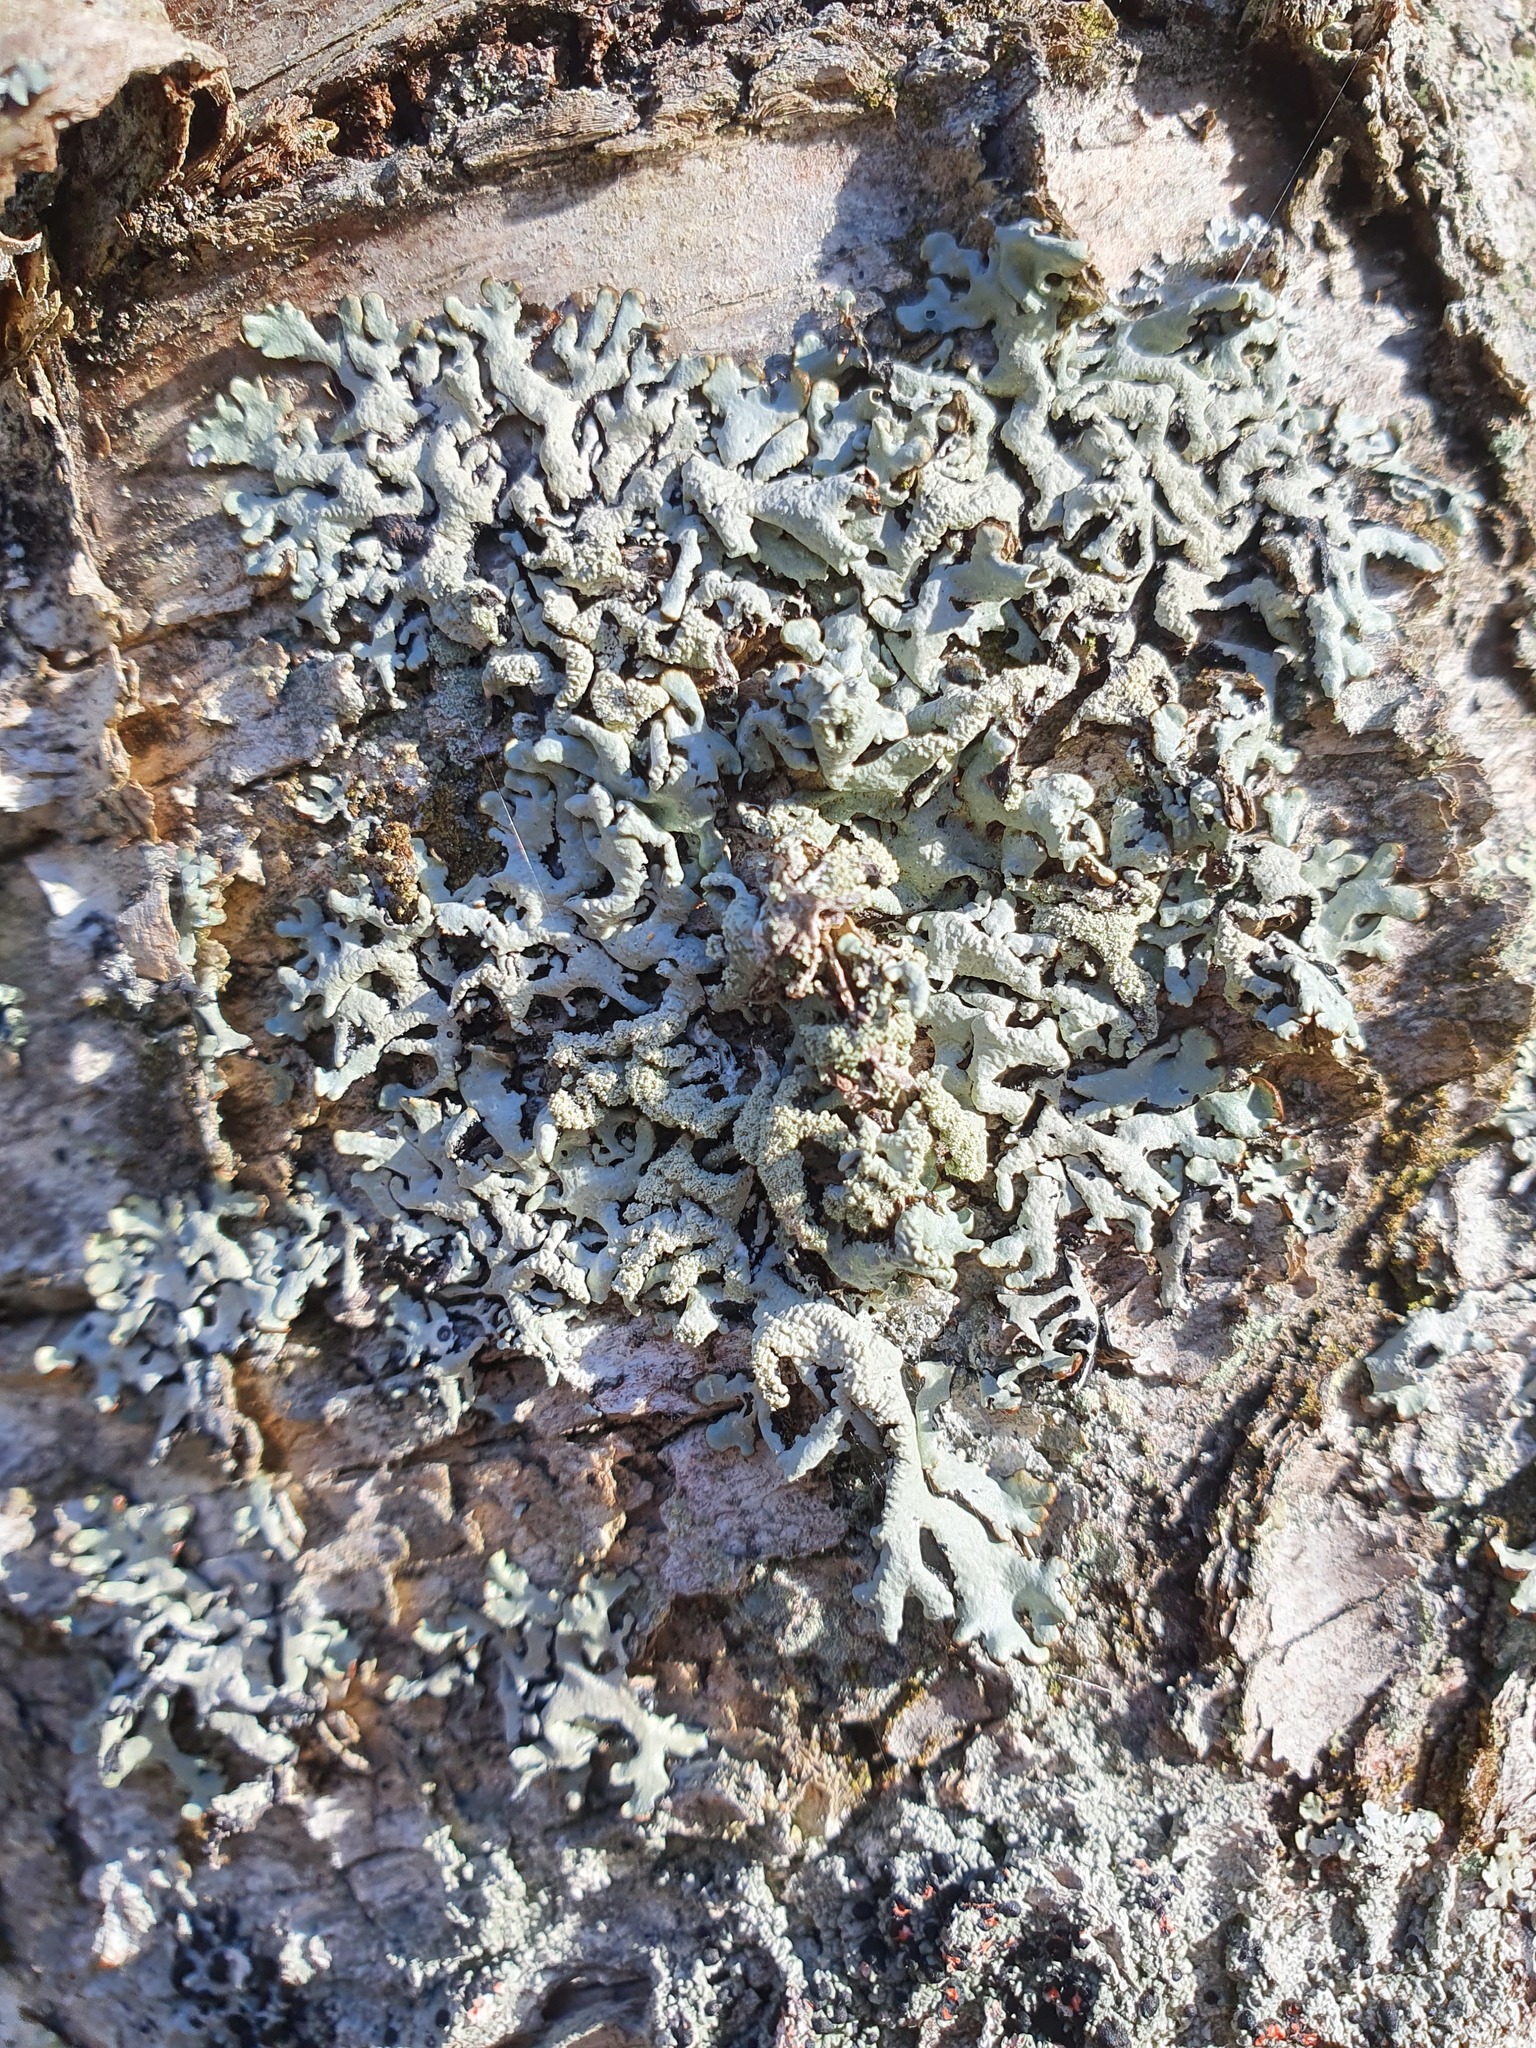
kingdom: Fungi
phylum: Ascomycota
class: Lecanoromycetes
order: Lecanorales
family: Parmeliaceae
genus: Hypogymnia
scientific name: Hypogymnia farinacea
